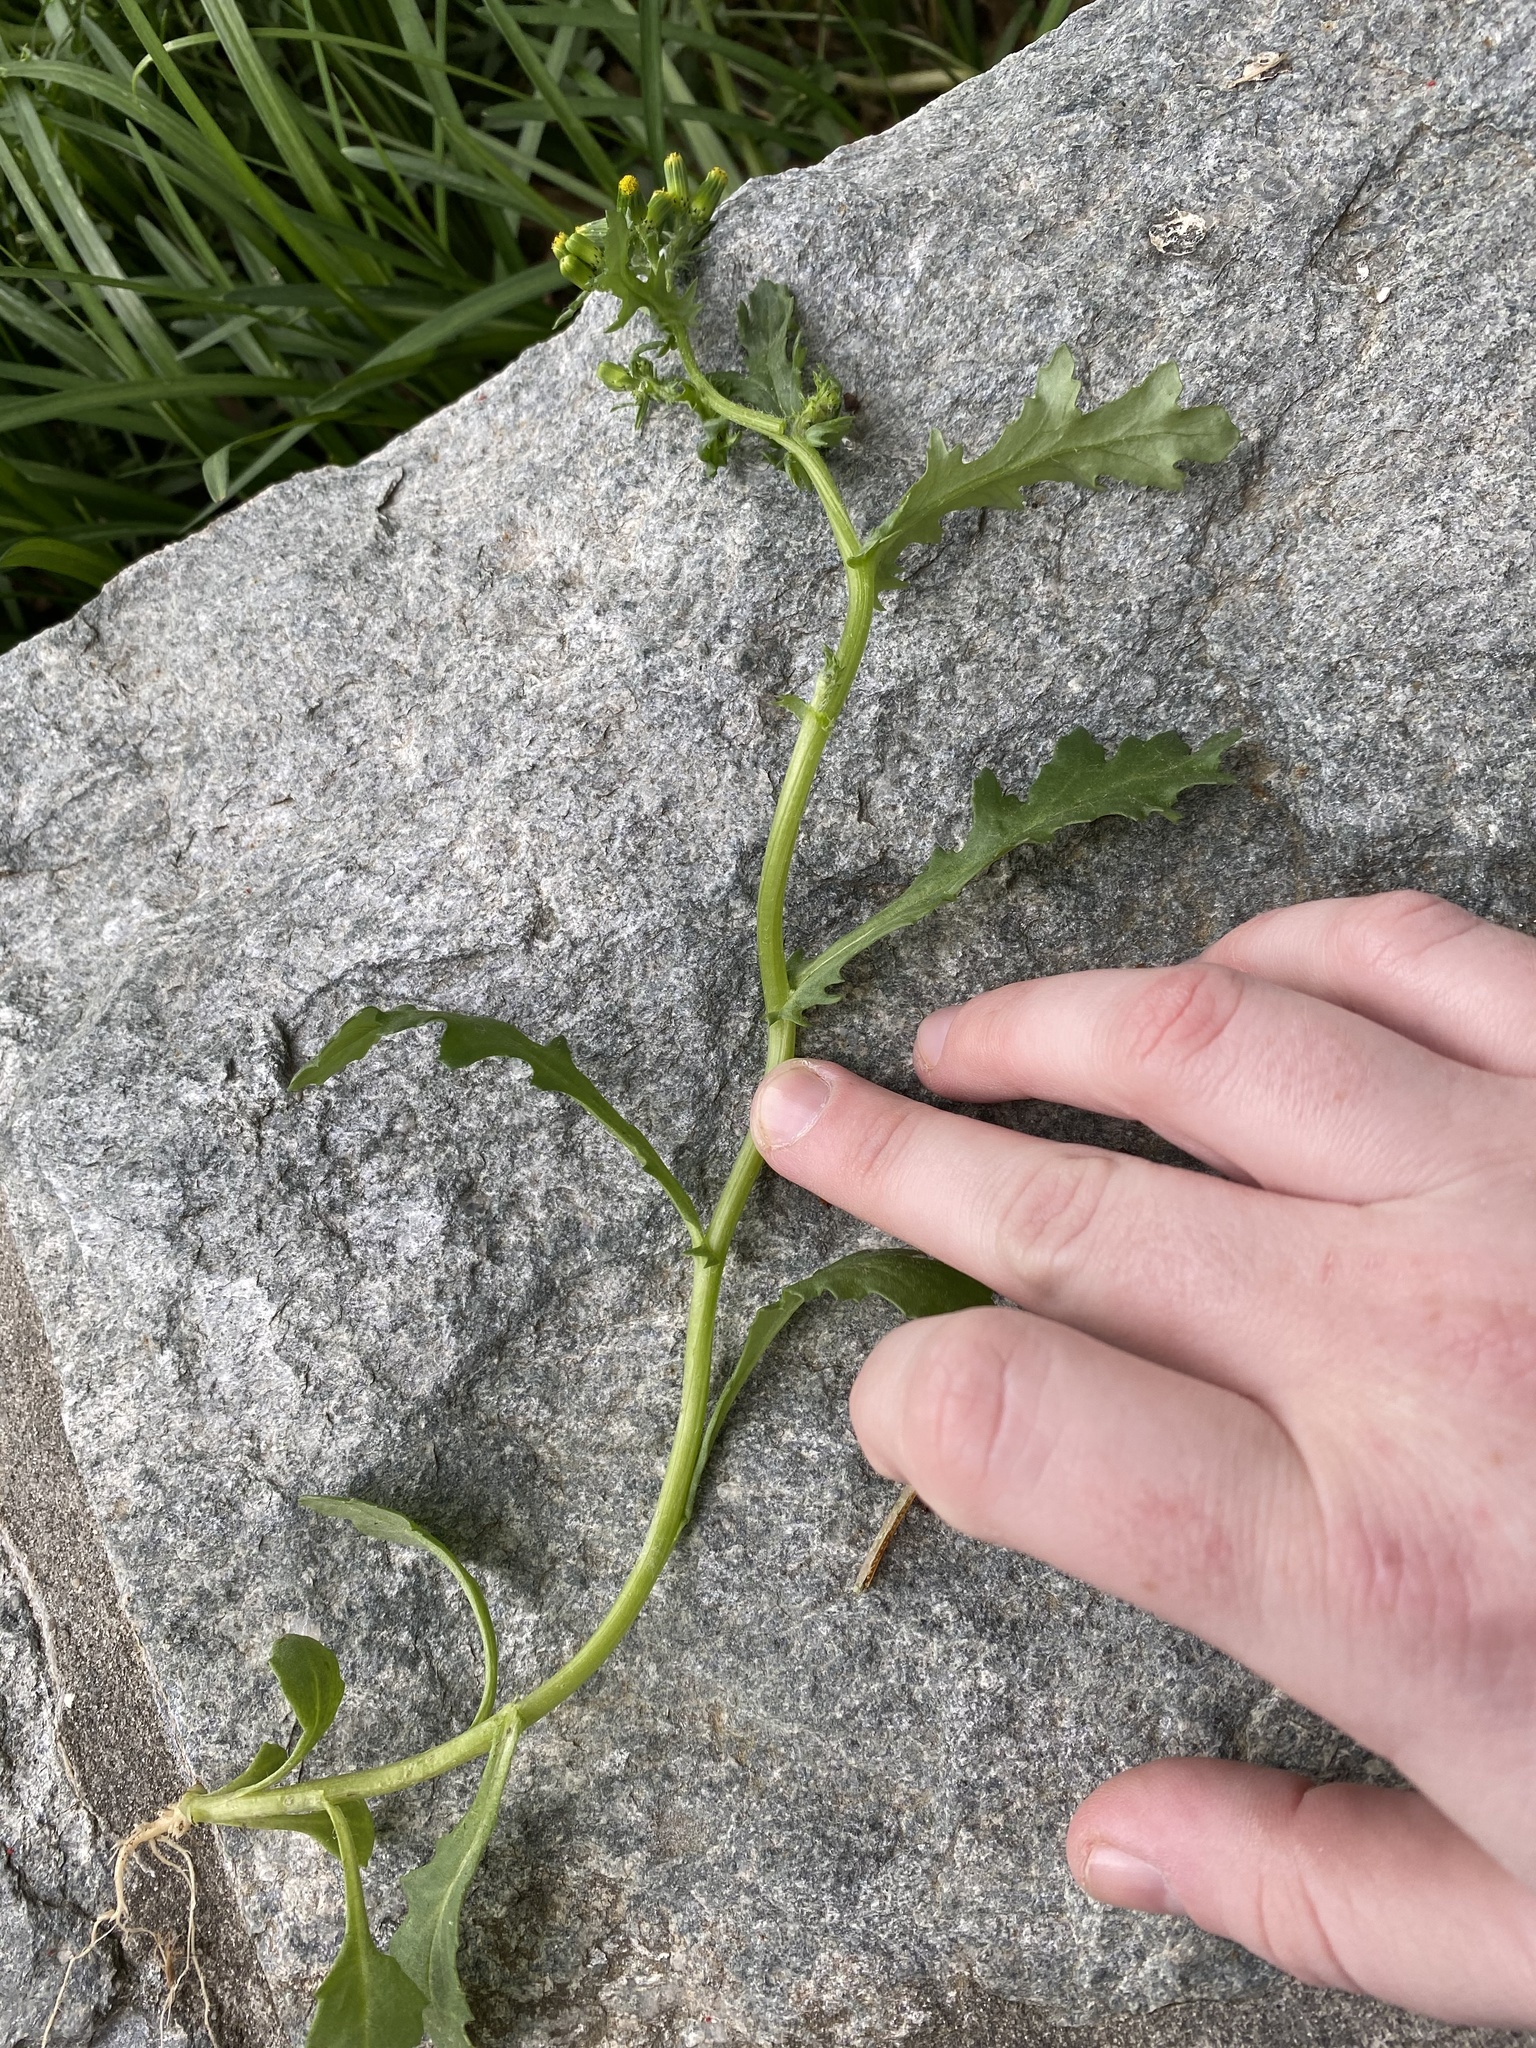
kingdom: Plantae
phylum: Tracheophyta
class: Magnoliopsida
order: Asterales
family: Asteraceae
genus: Senecio
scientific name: Senecio vulgaris
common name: Old-man-in-the-spring
